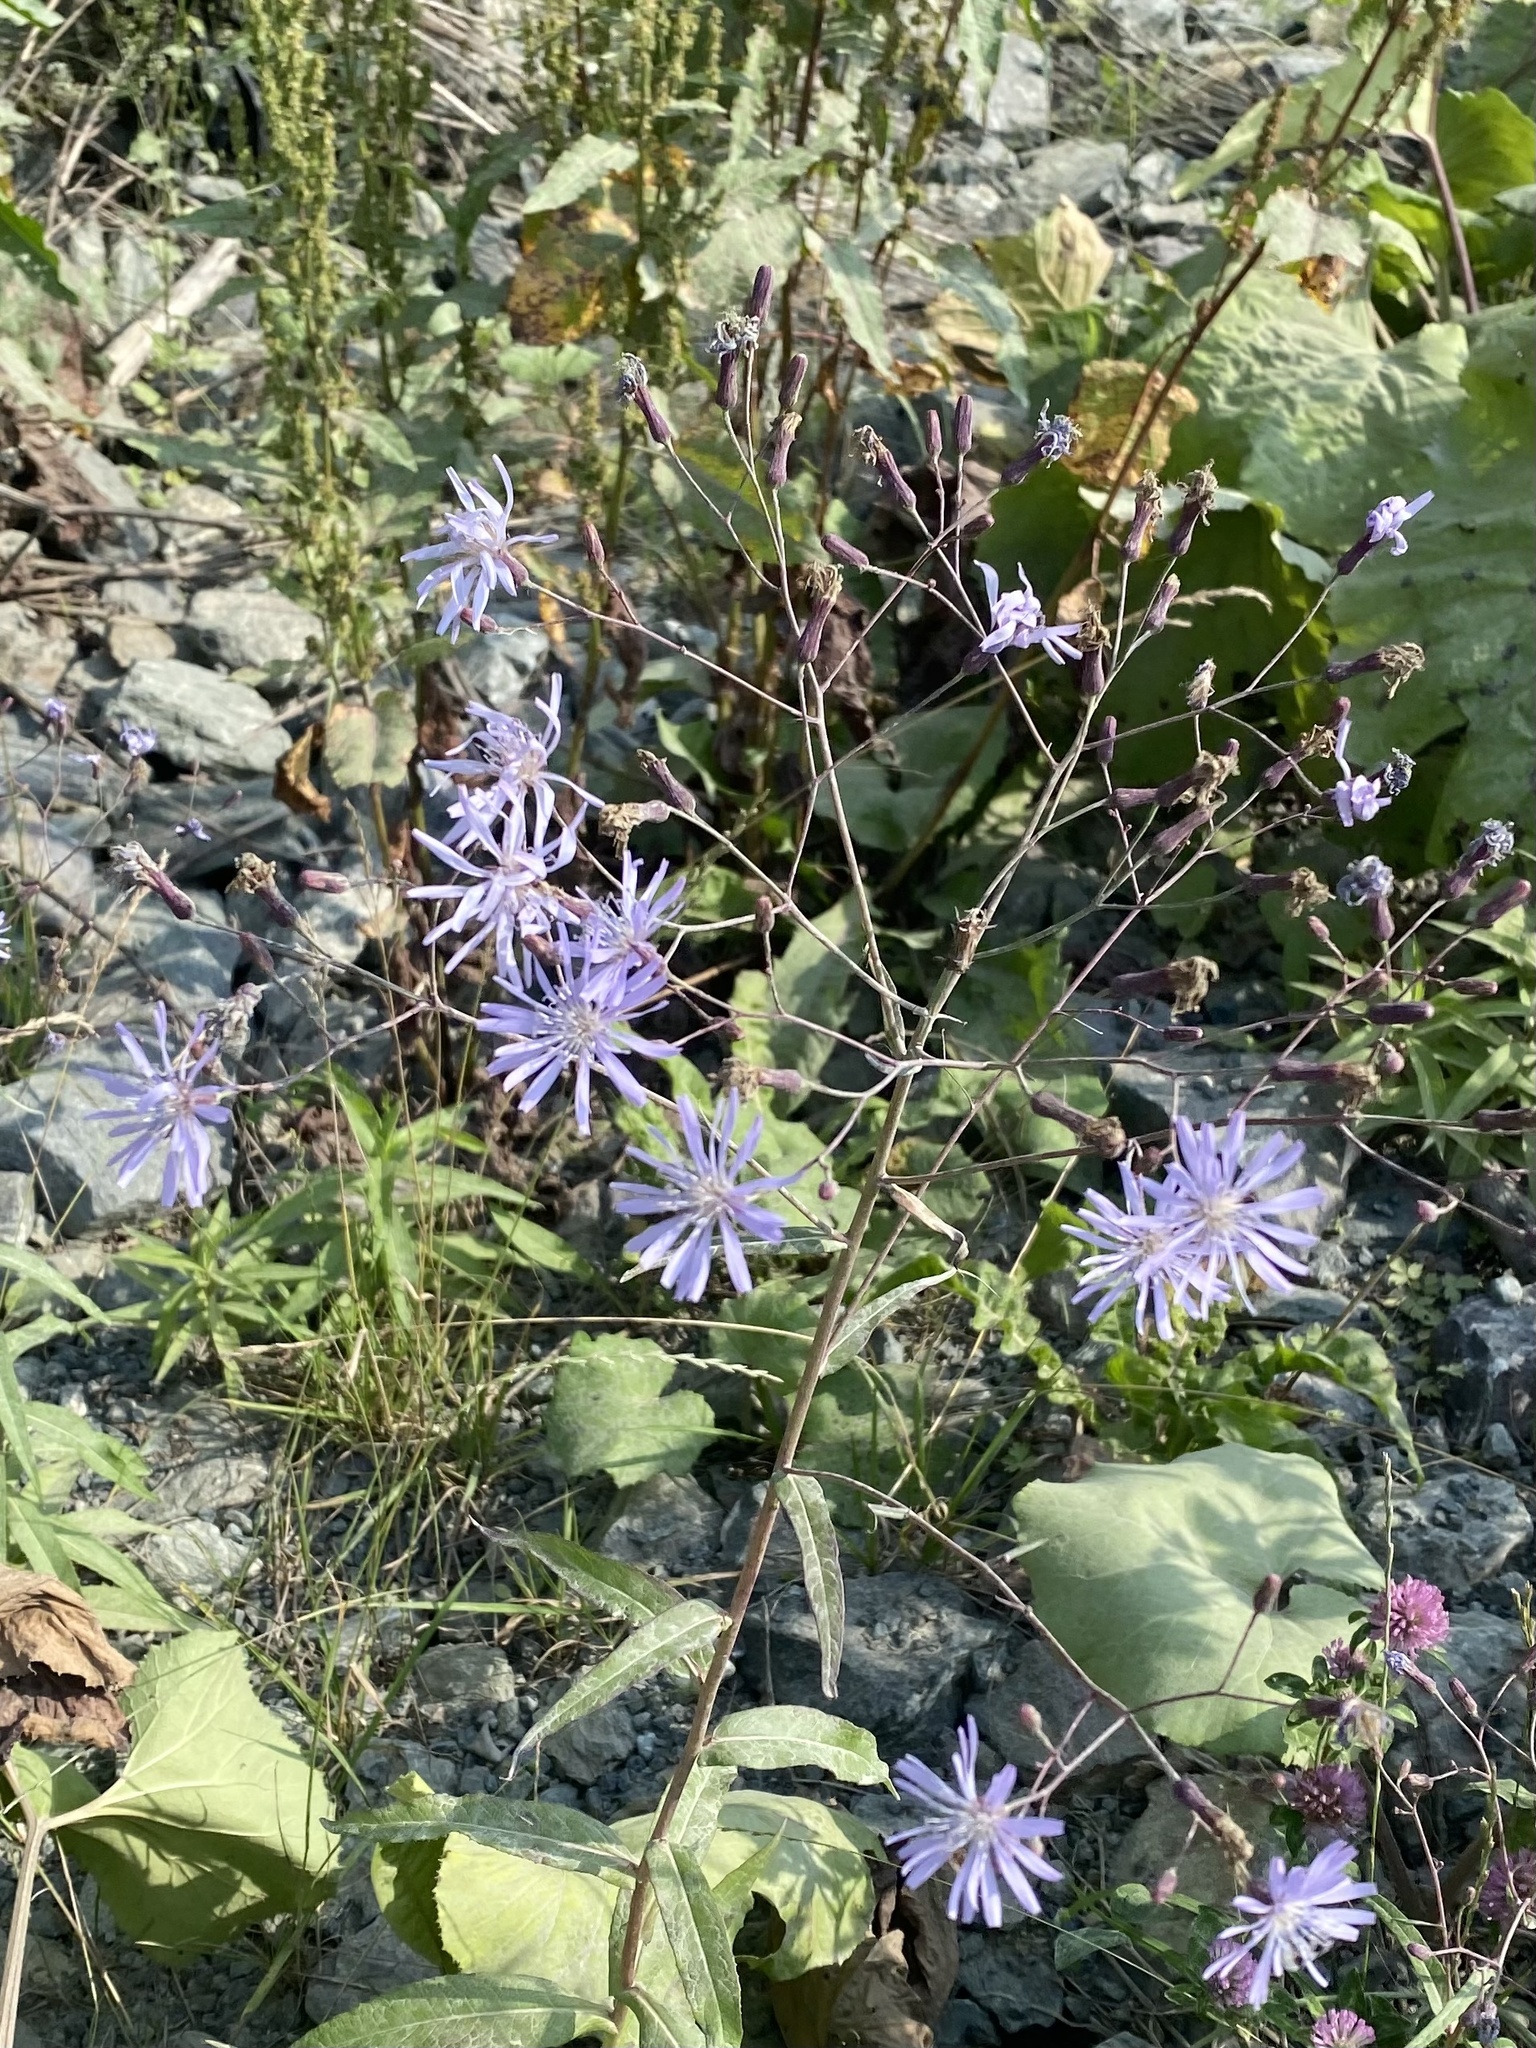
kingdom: Plantae
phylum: Tracheophyta
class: Magnoliopsida
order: Asterales
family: Asteraceae
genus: Lactuca
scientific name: Lactuca sibirica
